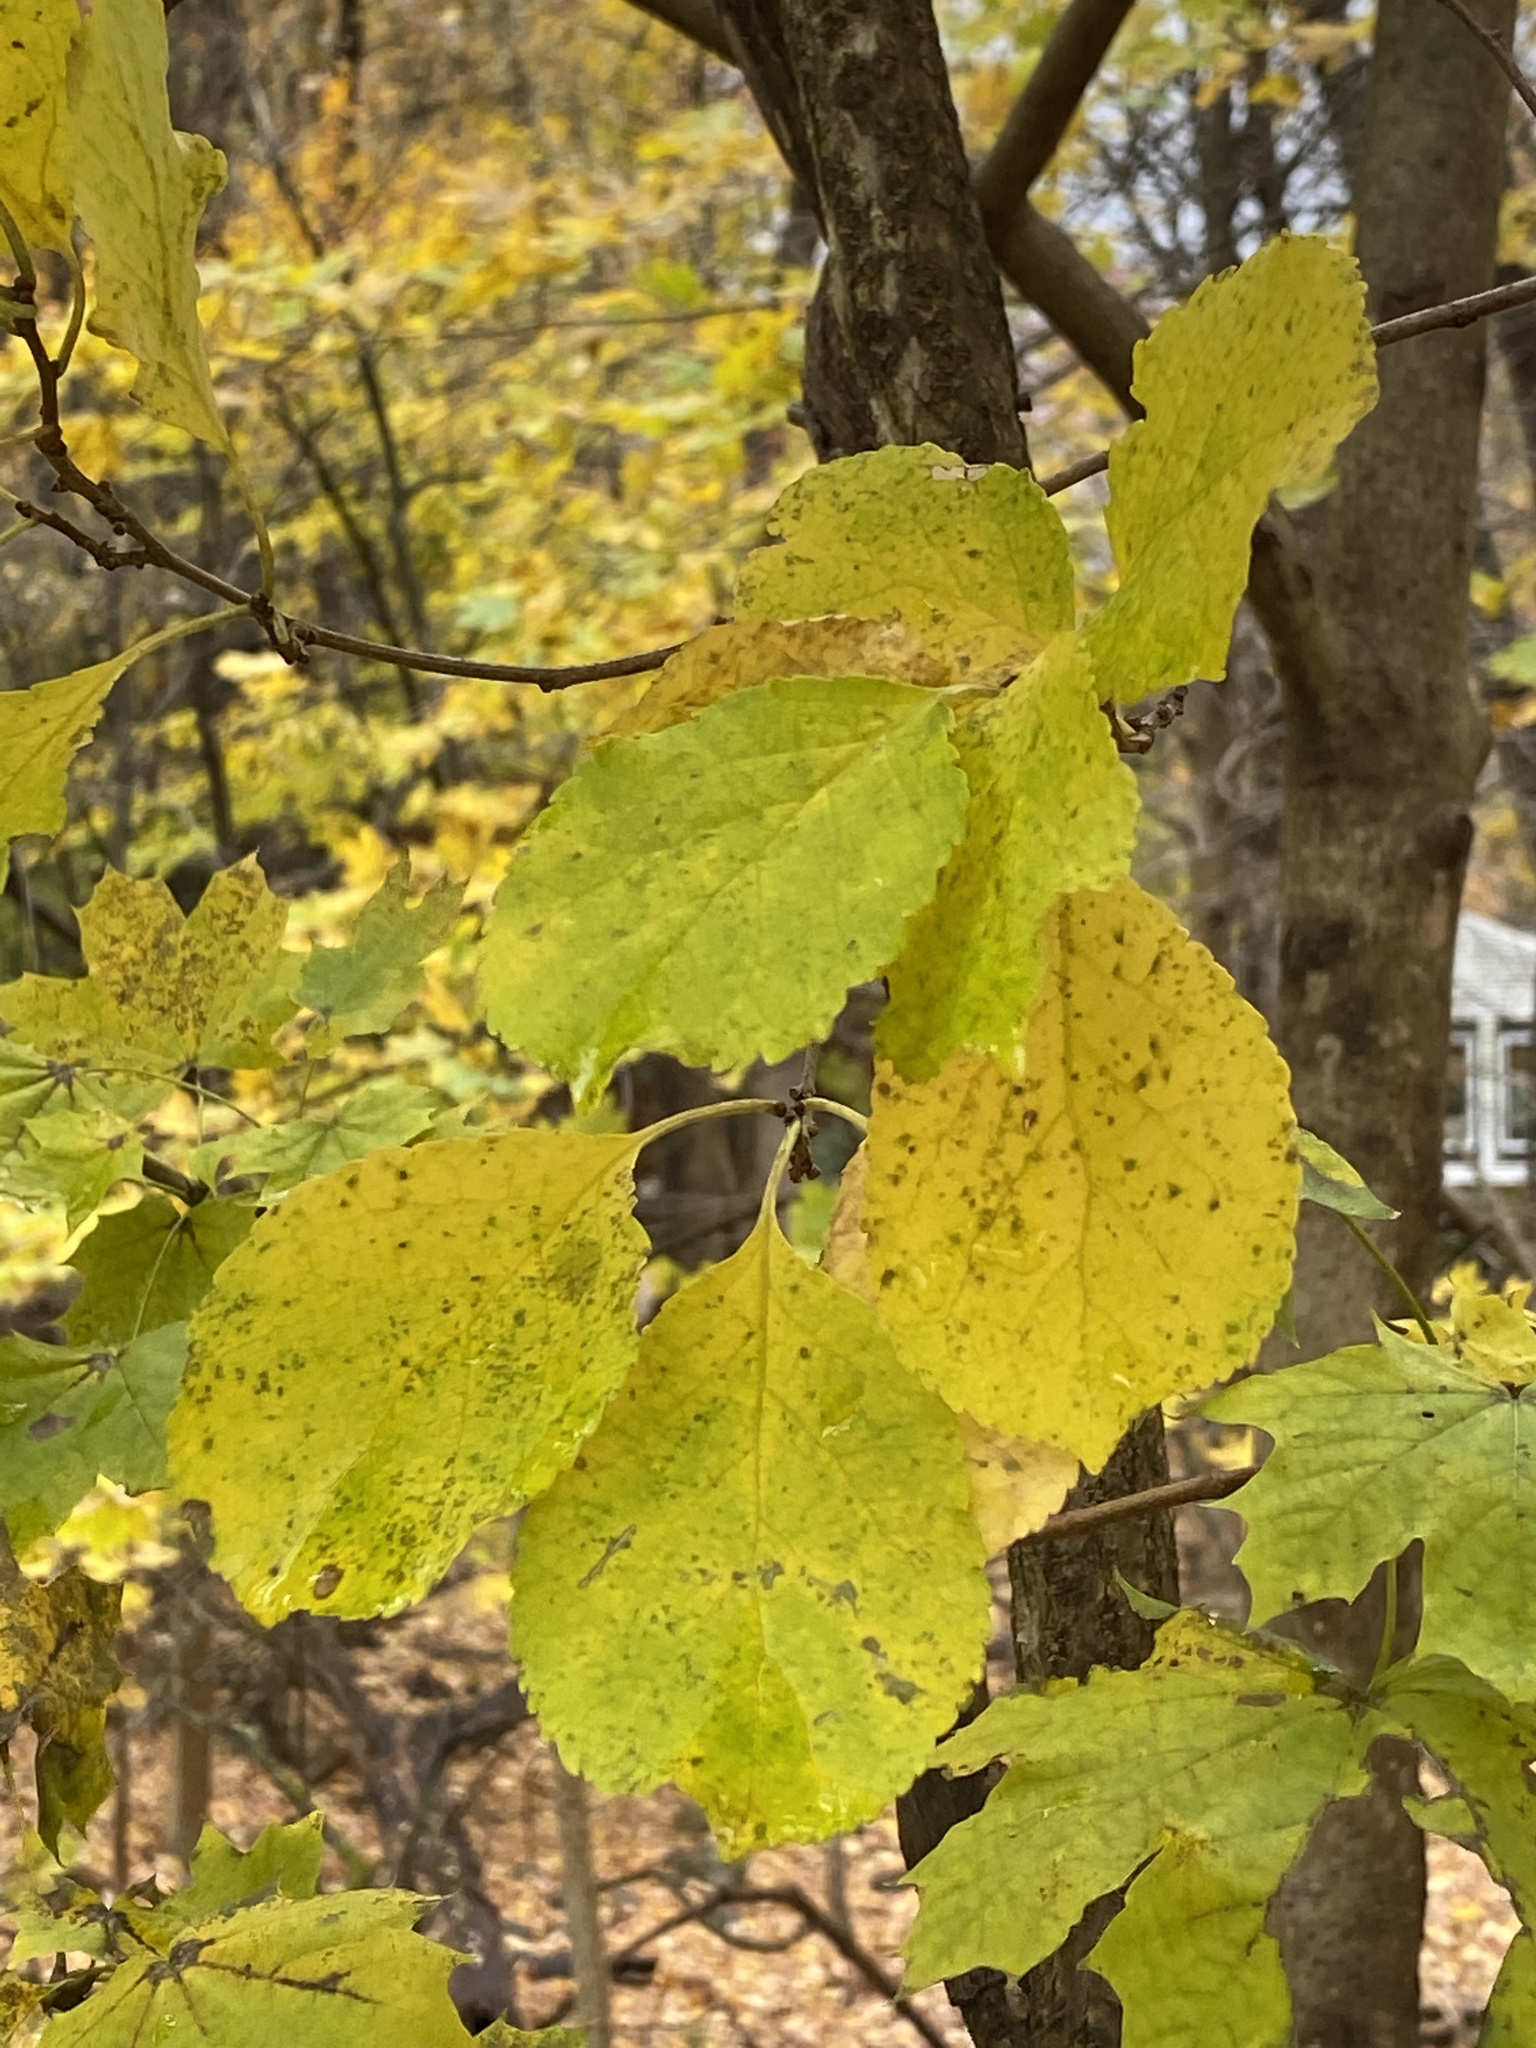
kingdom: Plantae
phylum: Tracheophyta
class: Magnoliopsida
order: Celastrales
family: Celastraceae
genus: Celastrus
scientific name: Celastrus orbiculatus
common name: Oriental bittersweet
